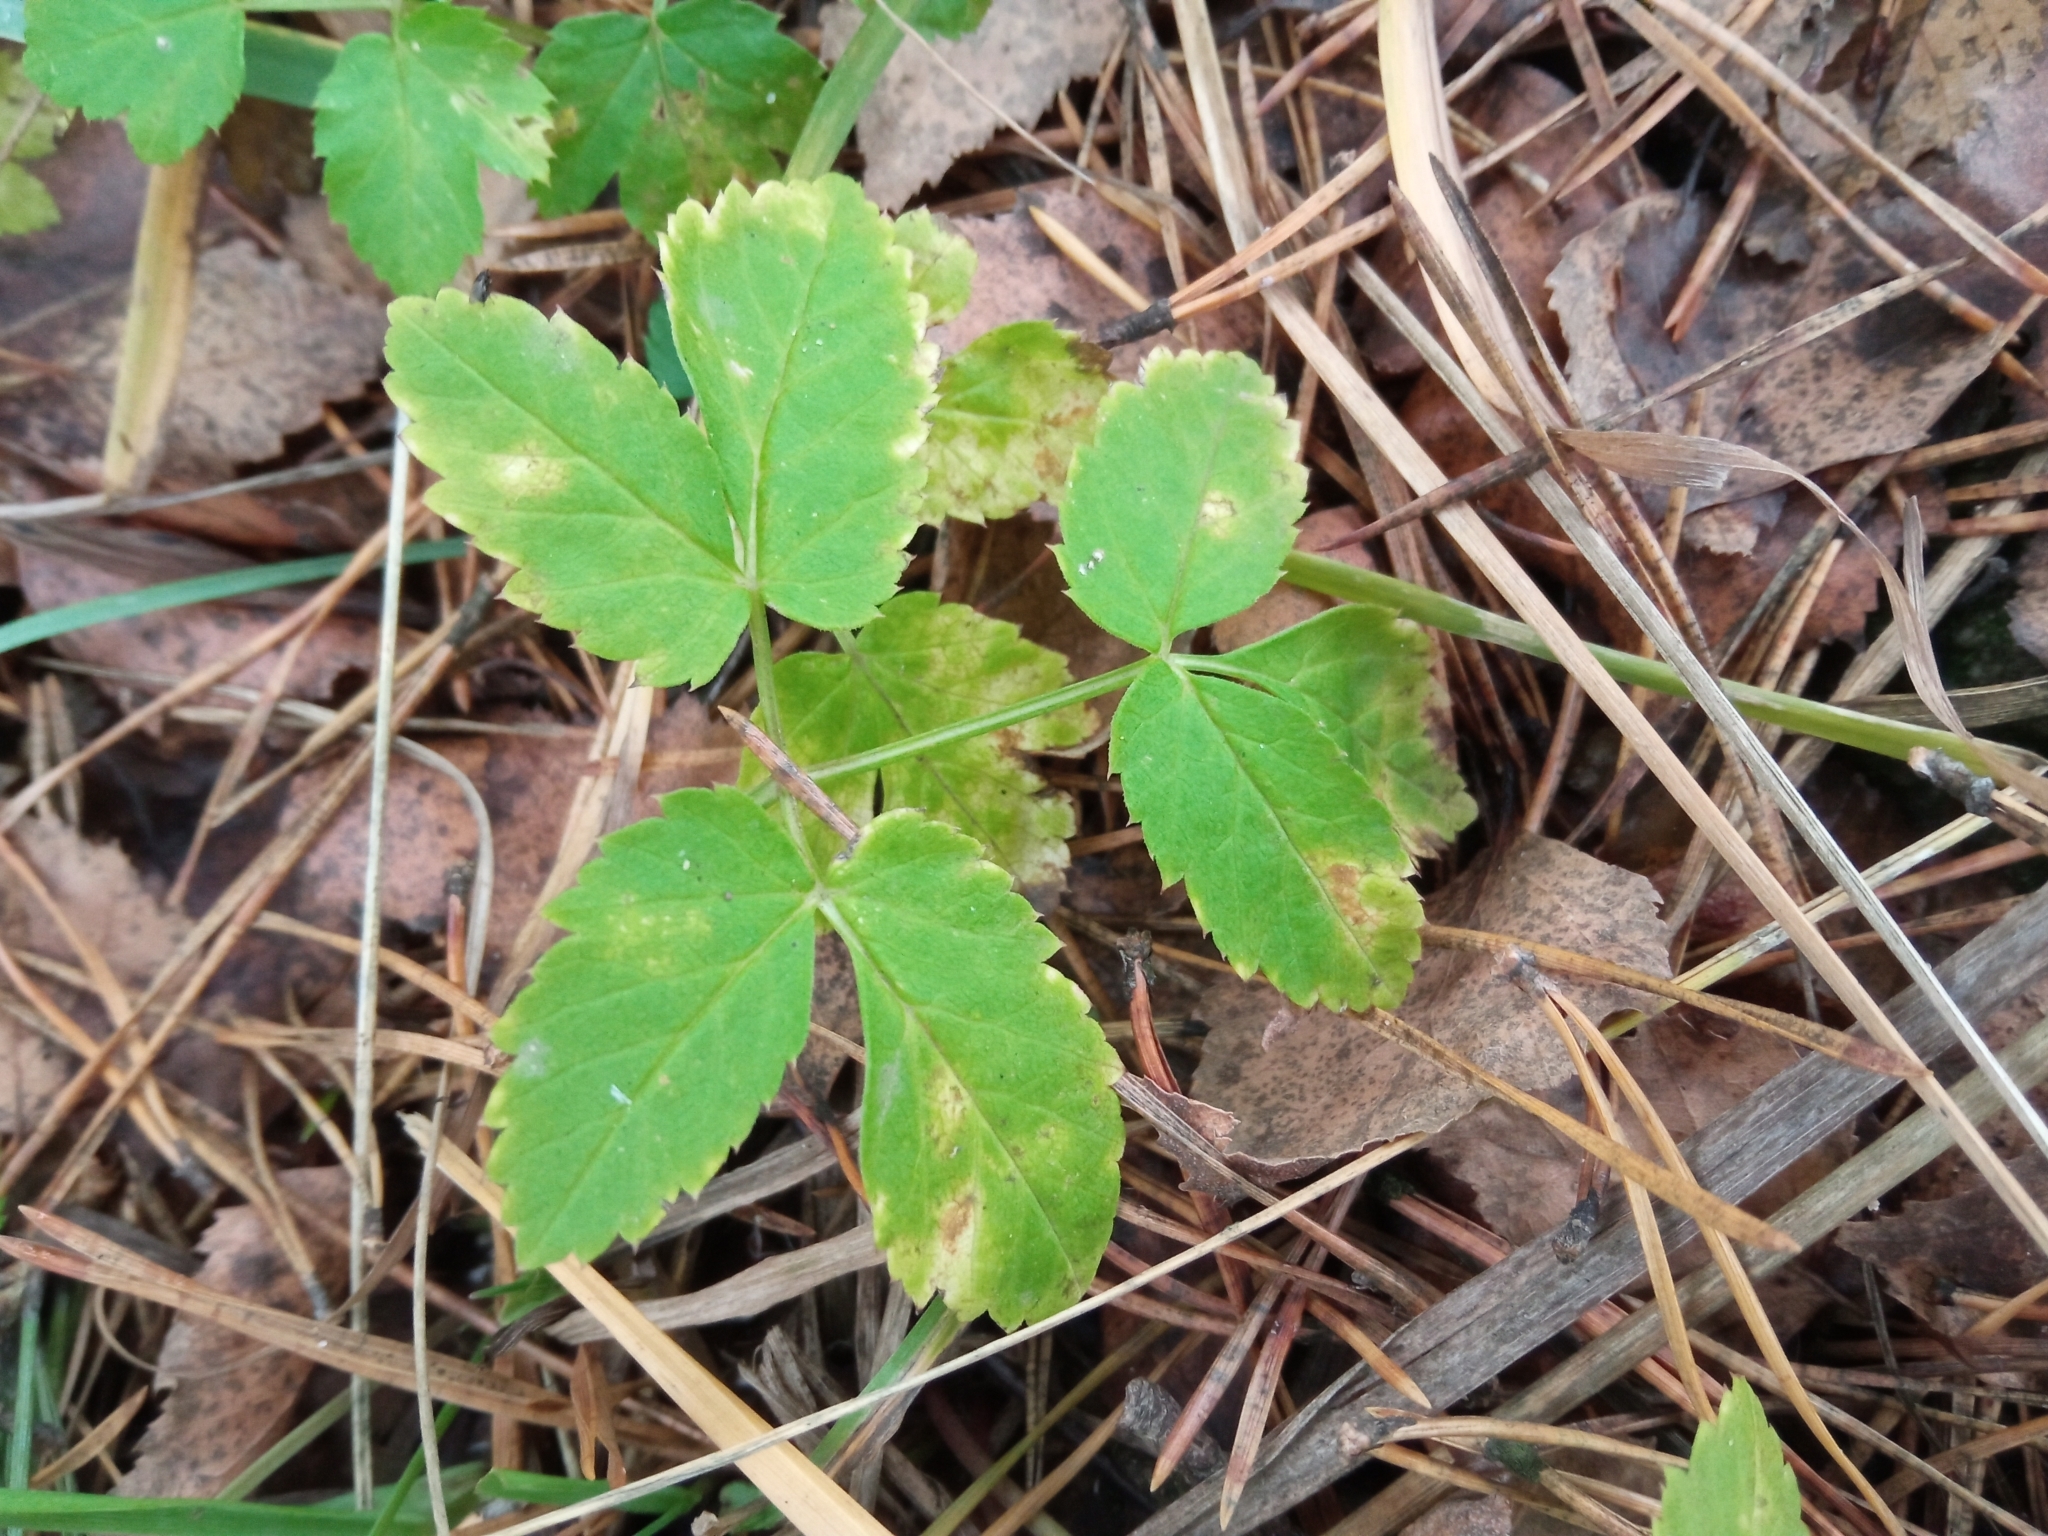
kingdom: Plantae
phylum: Tracheophyta
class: Magnoliopsida
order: Apiales
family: Apiaceae
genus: Aegopodium
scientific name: Aegopodium podagraria
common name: Ground-elder
